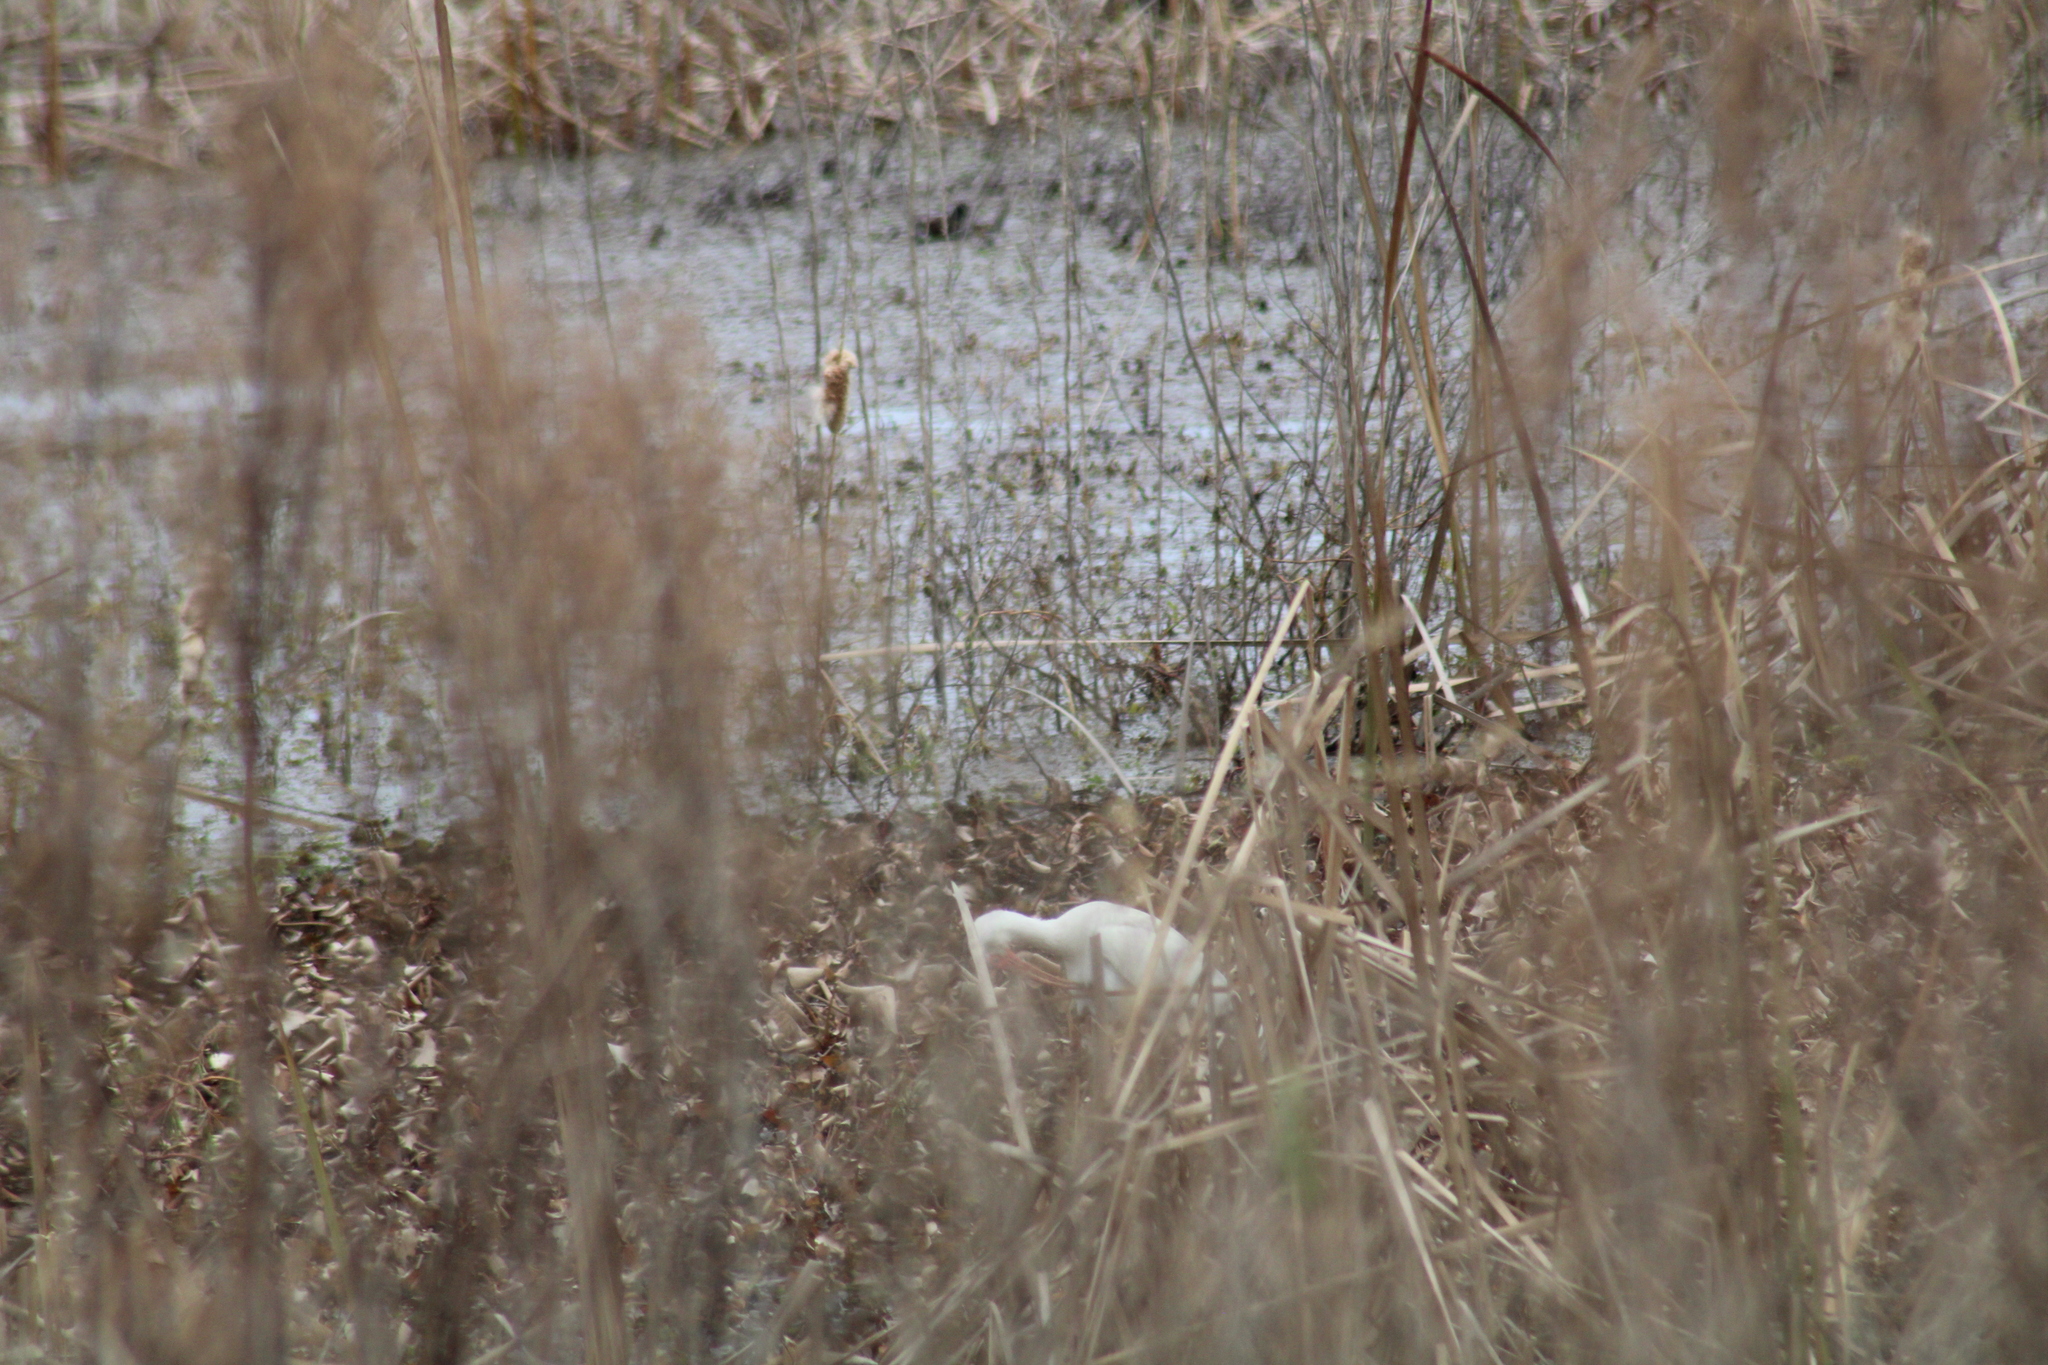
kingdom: Animalia
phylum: Chordata
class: Aves
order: Pelecaniformes
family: Threskiornithidae
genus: Eudocimus
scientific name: Eudocimus albus
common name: White ibis
